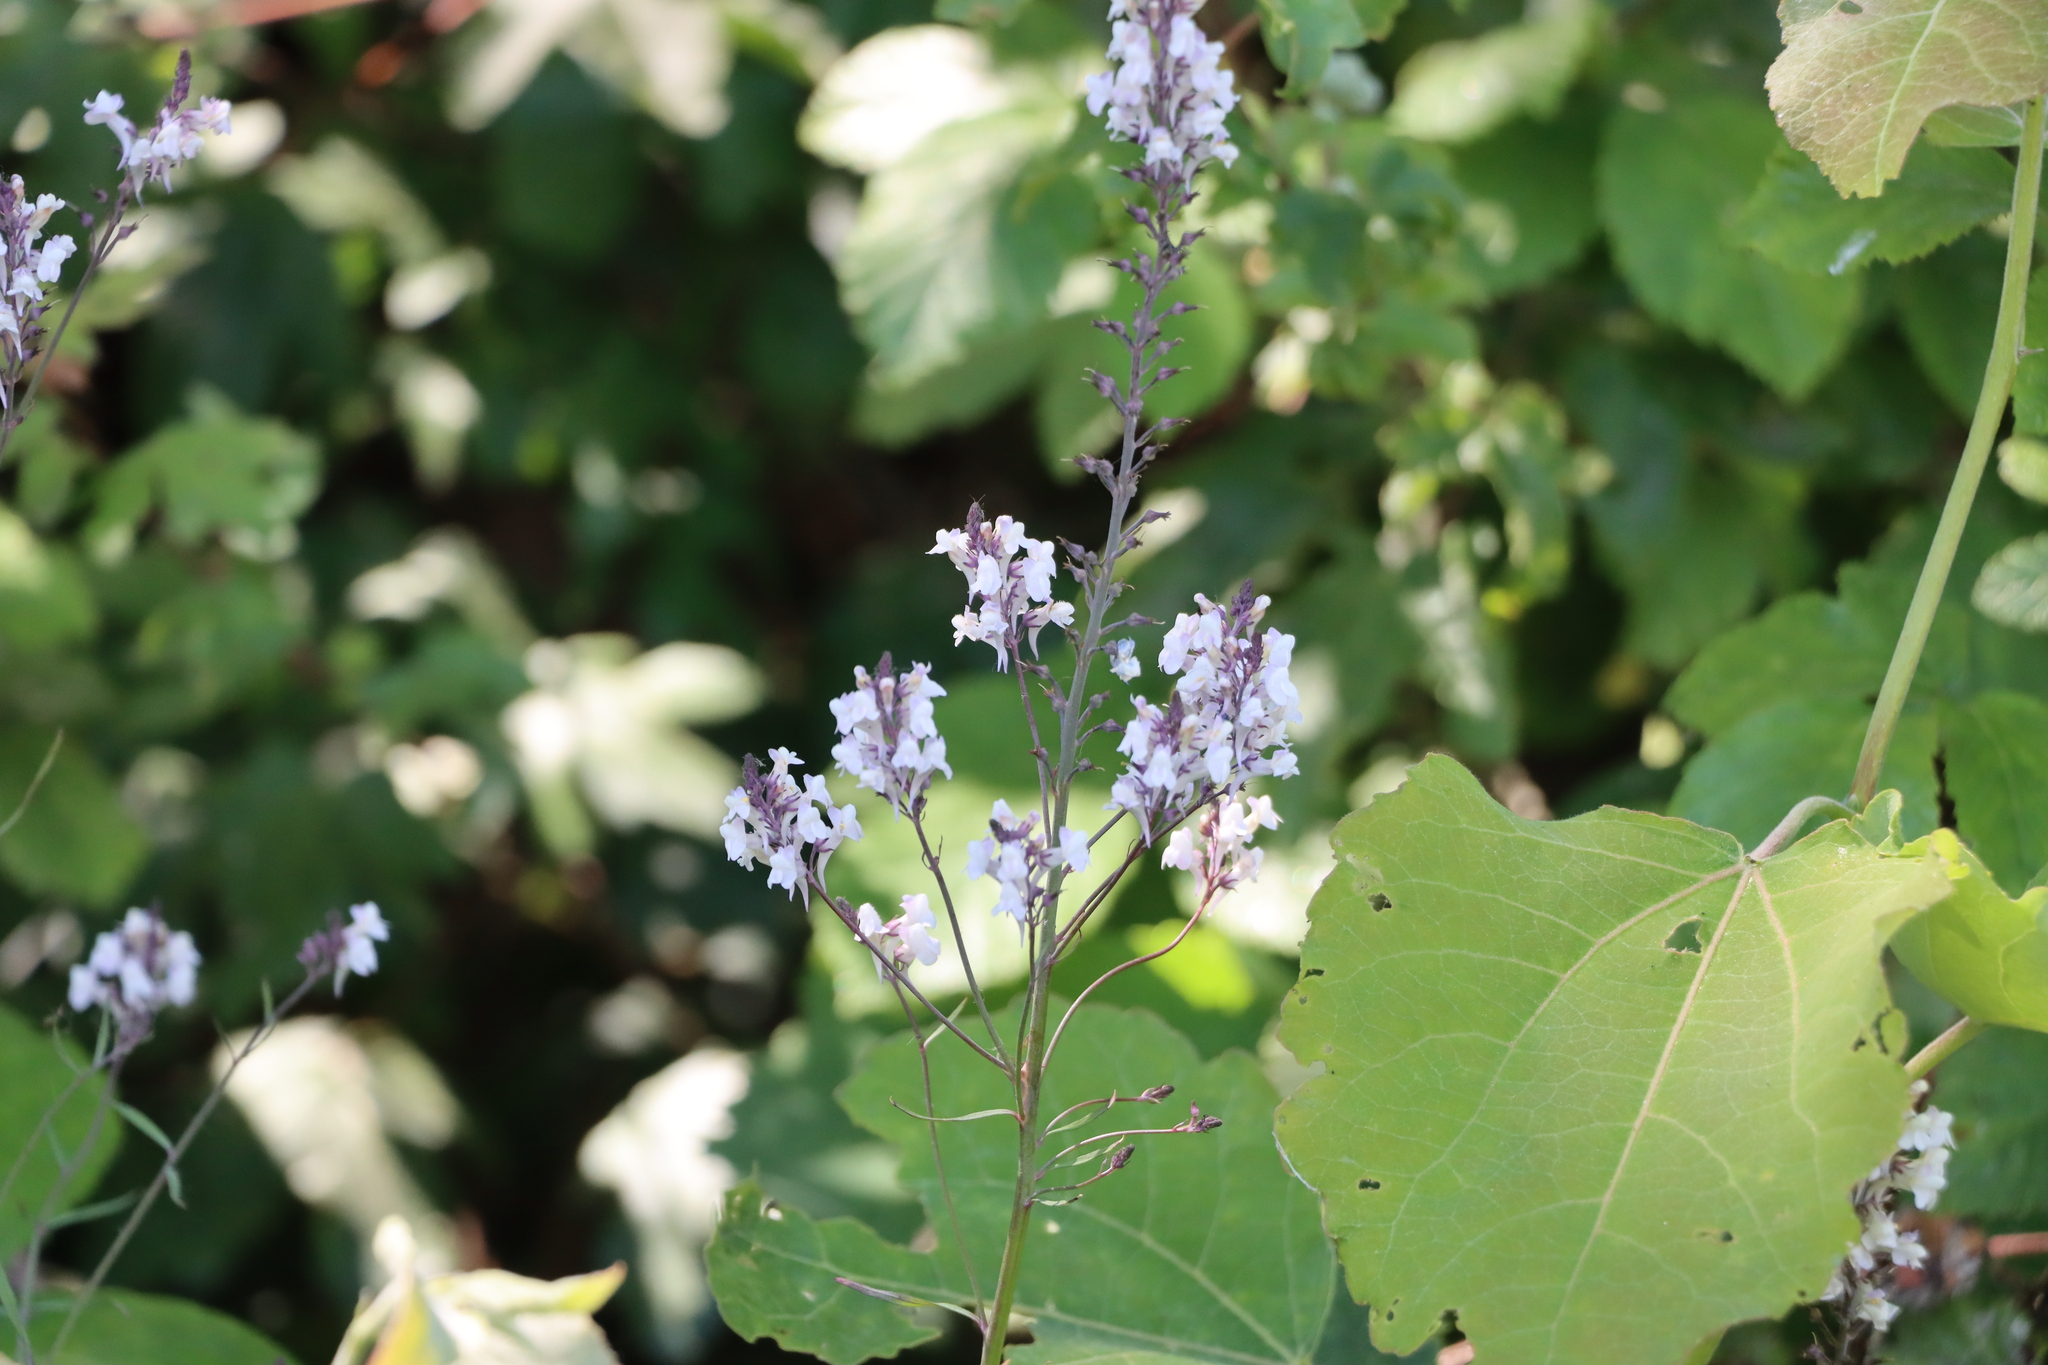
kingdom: Plantae
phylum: Tracheophyta
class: Magnoliopsida
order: Lamiales
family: Plantaginaceae
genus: Linaria
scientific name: Linaria repens
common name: Pale toadflax
